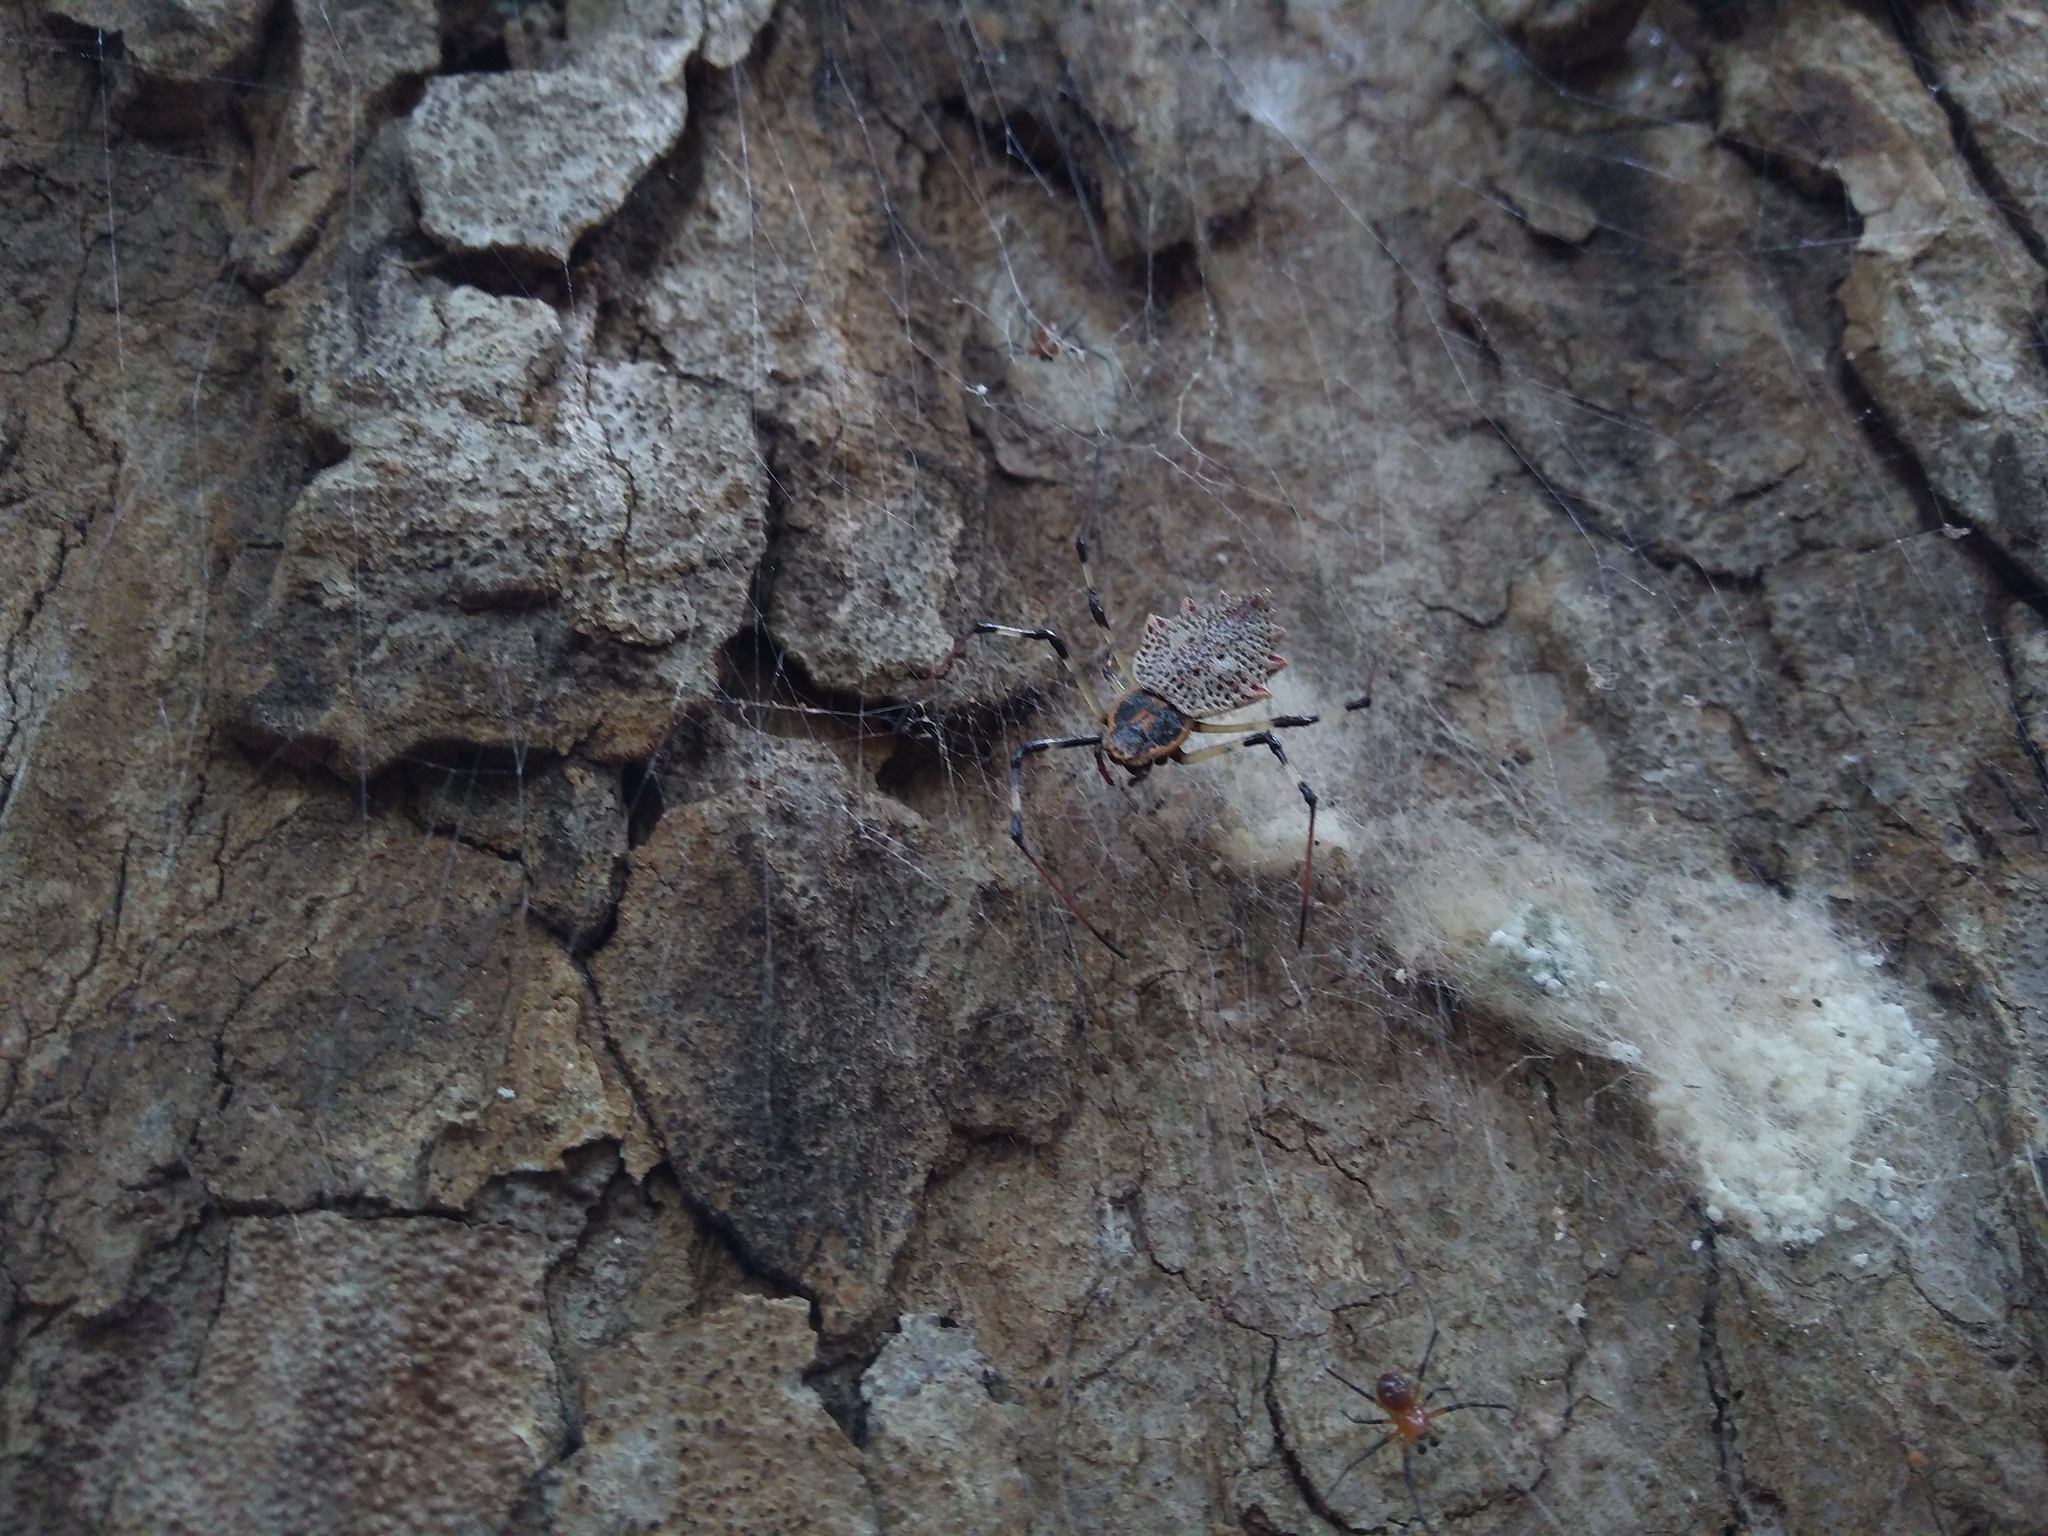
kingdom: Animalia
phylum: Arthropoda
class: Arachnida
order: Araneae
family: Araneidae
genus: Herennia
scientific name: Herennia multipuncta
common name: Spotted coin spider
